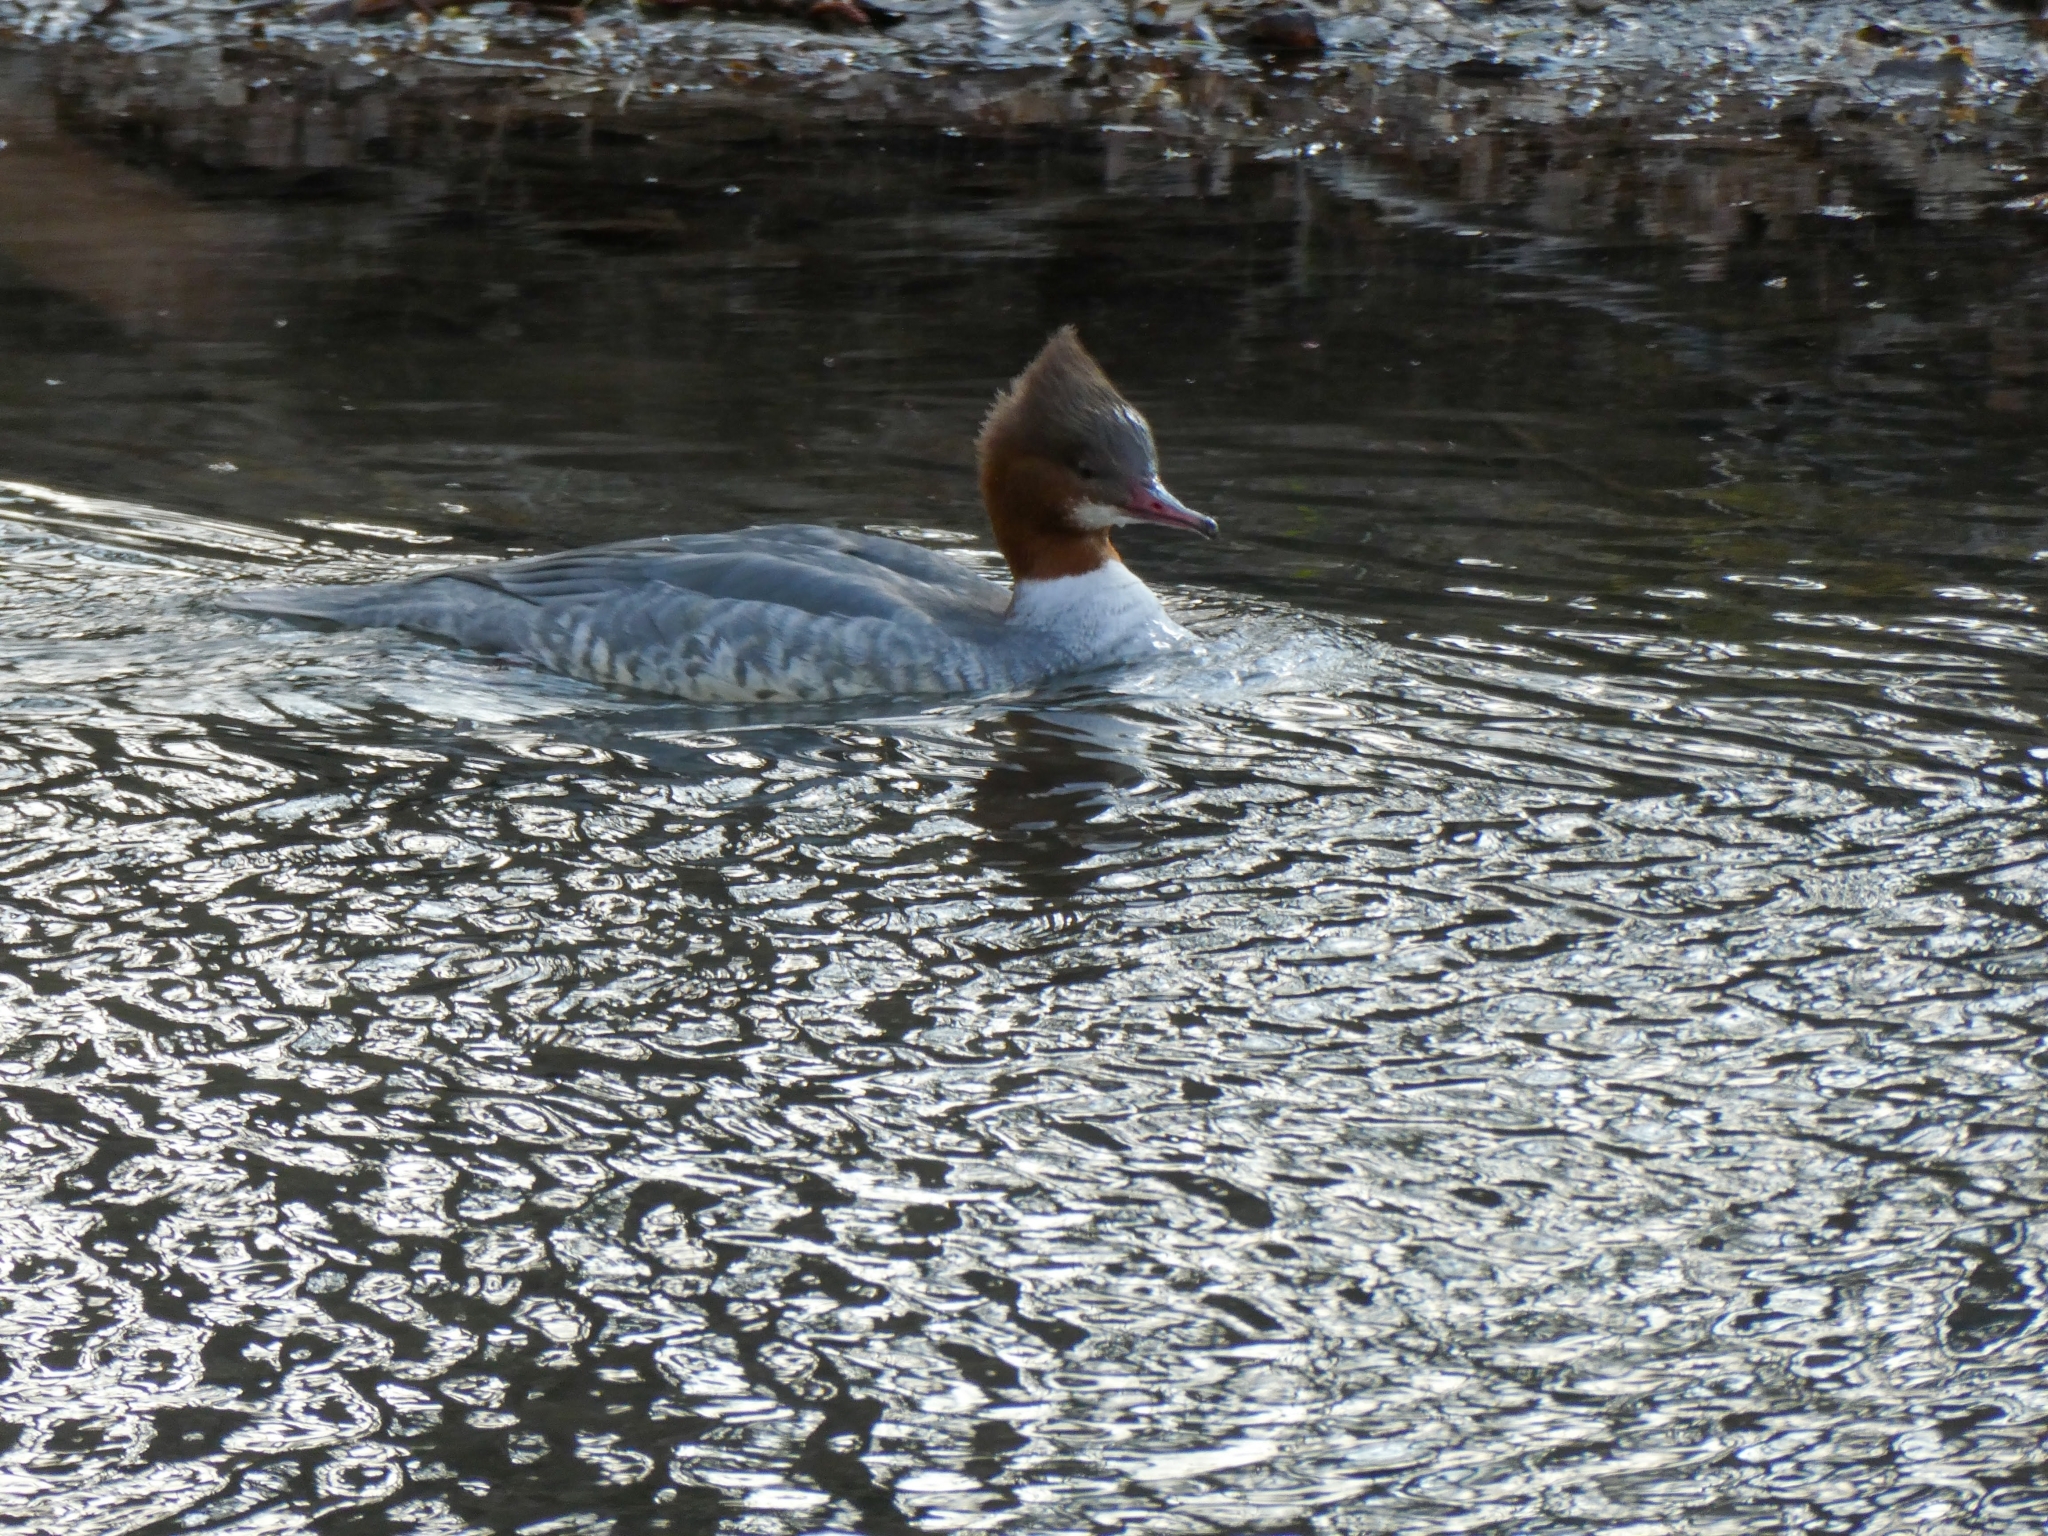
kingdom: Animalia
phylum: Chordata
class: Aves
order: Anseriformes
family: Anatidae
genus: Mergus
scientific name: Mergus merganser
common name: Common merganser
